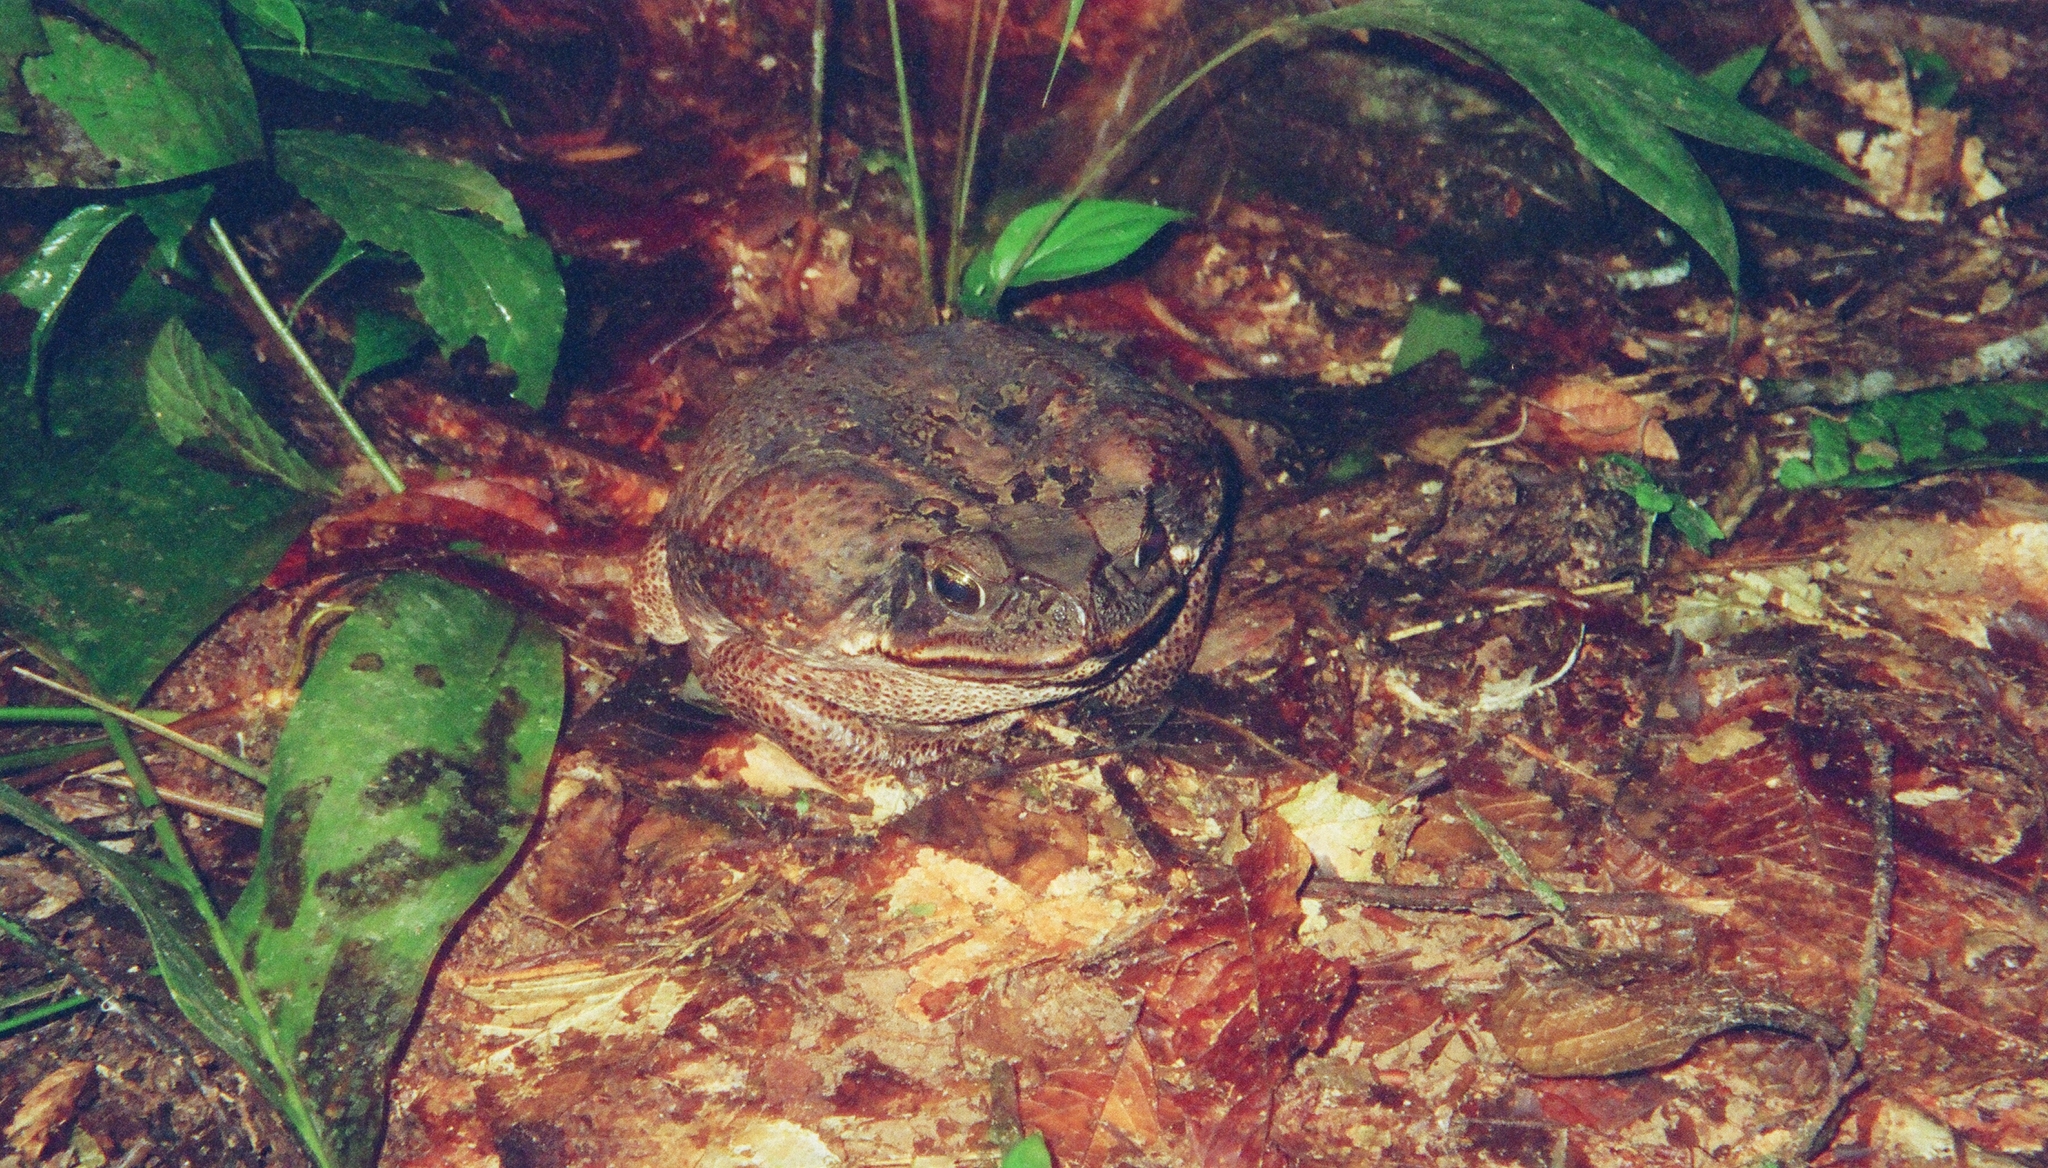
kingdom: Animalia
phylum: Chordata
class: Amphibia
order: Anura
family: Bufonidae
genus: Rhinella
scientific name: Rhinella marina
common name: Cane toad
